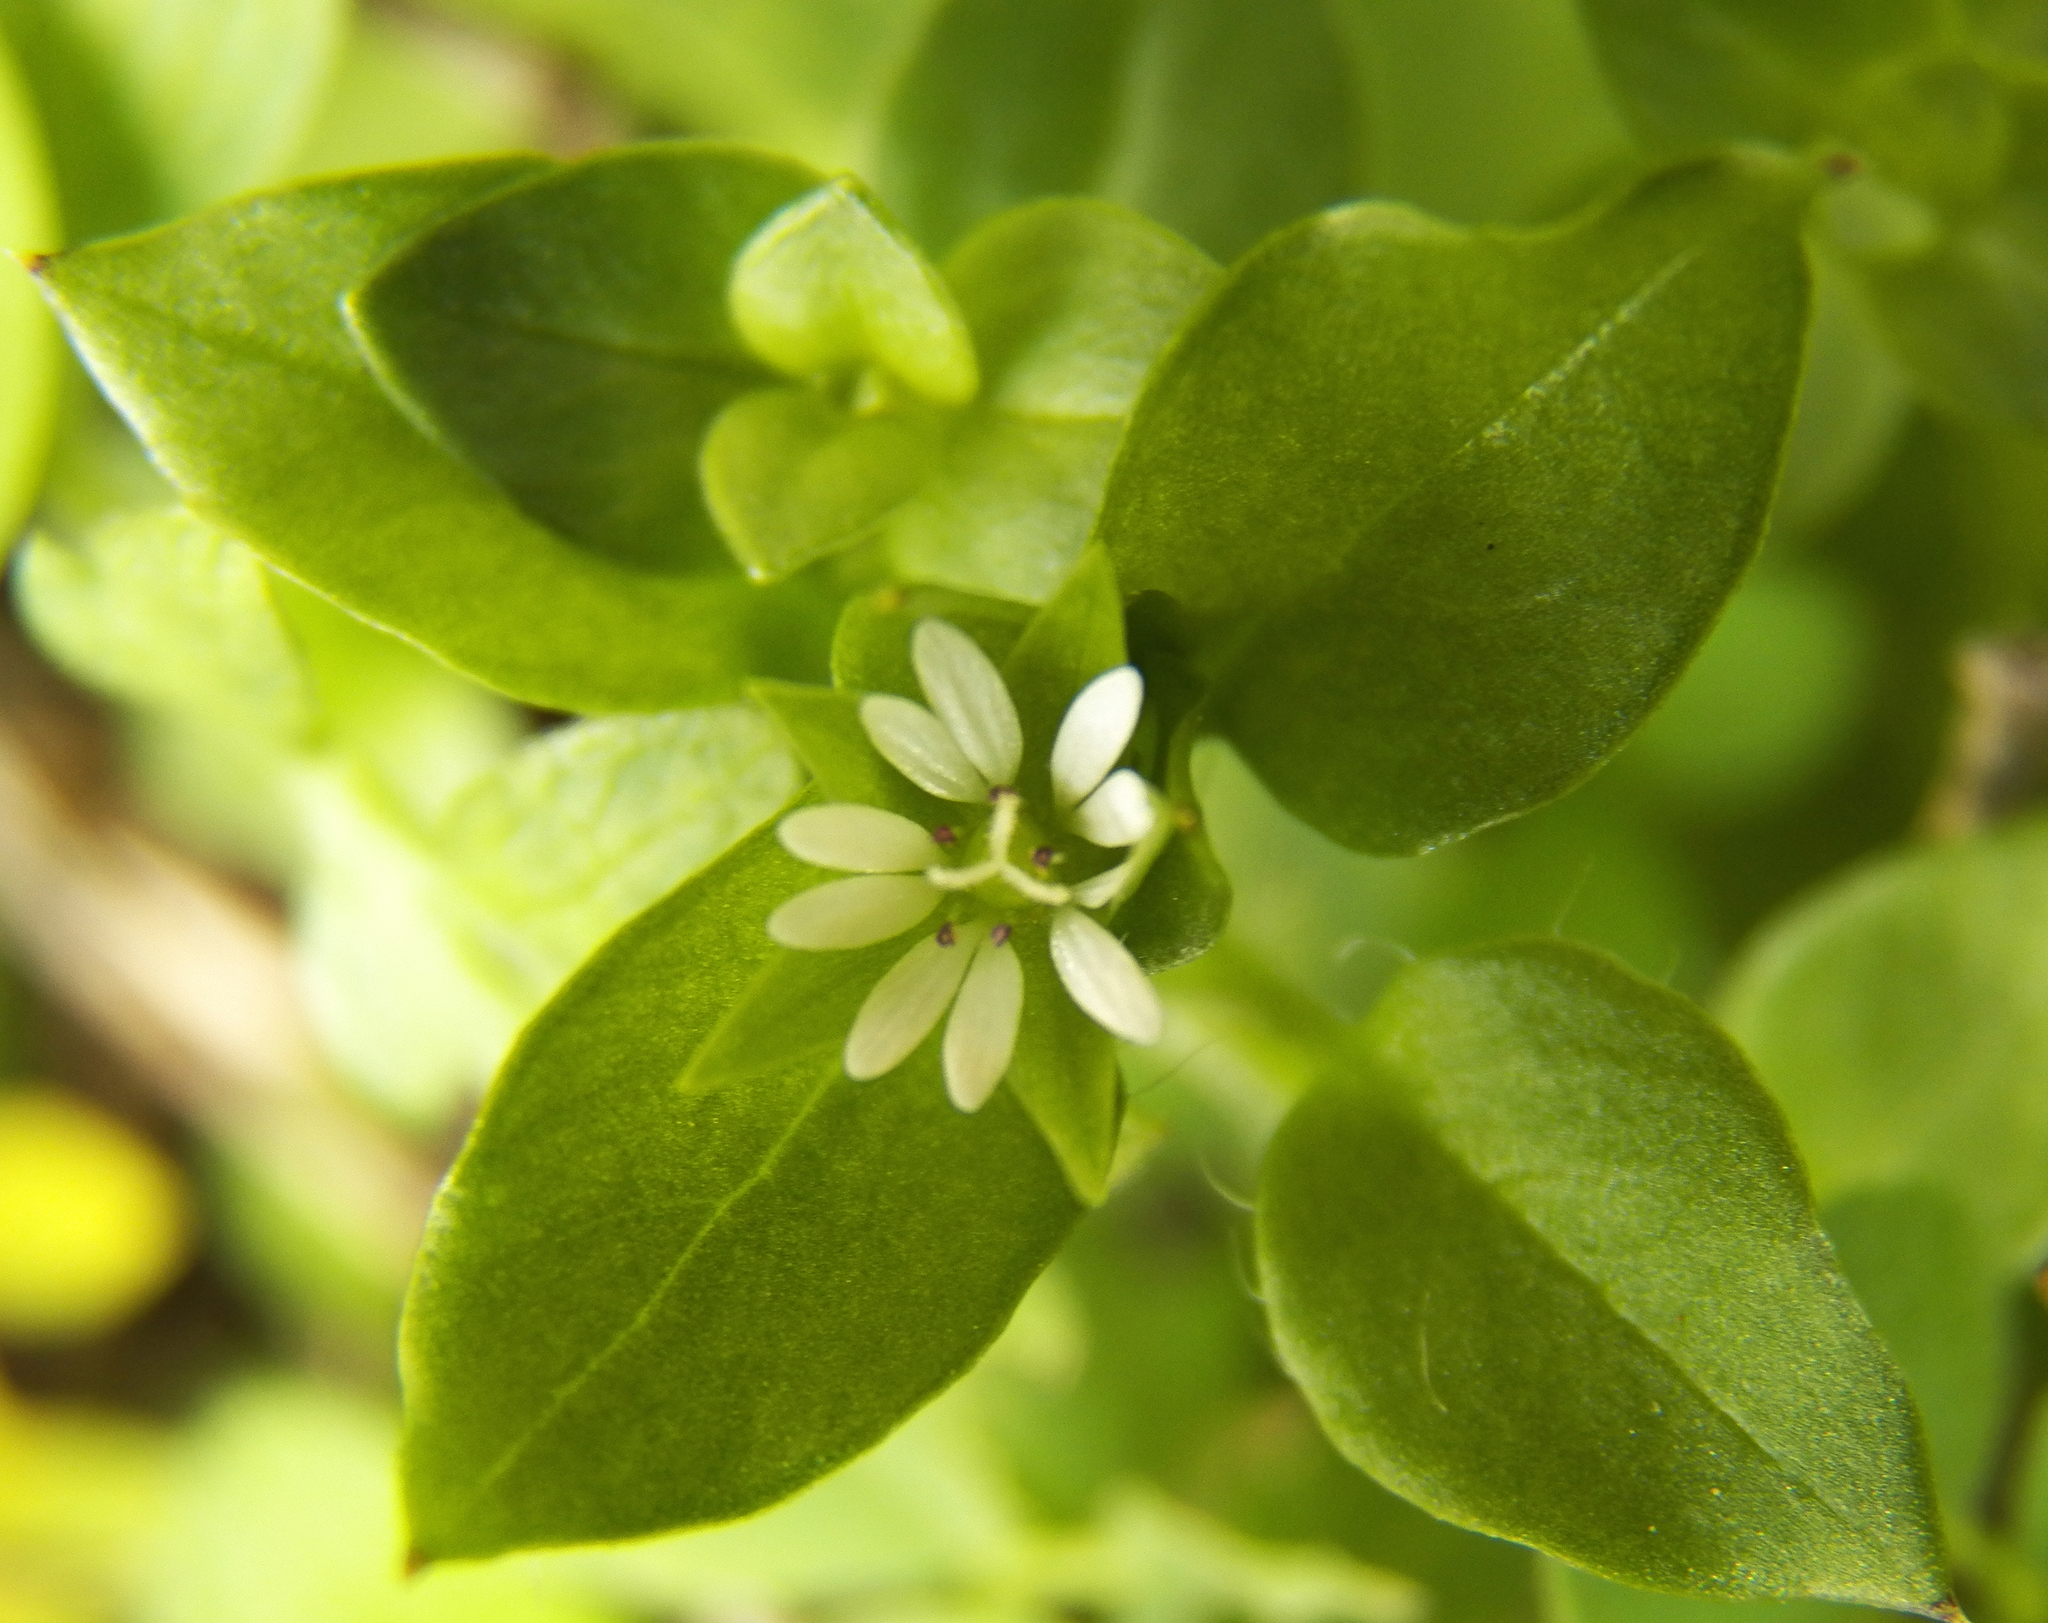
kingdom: Plantae
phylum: Tracheophyta
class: Magnoliopsida
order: Caryophyllales
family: Caryophyllaceae
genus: Stellaria
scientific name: Stellaria media
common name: Common chickweed
